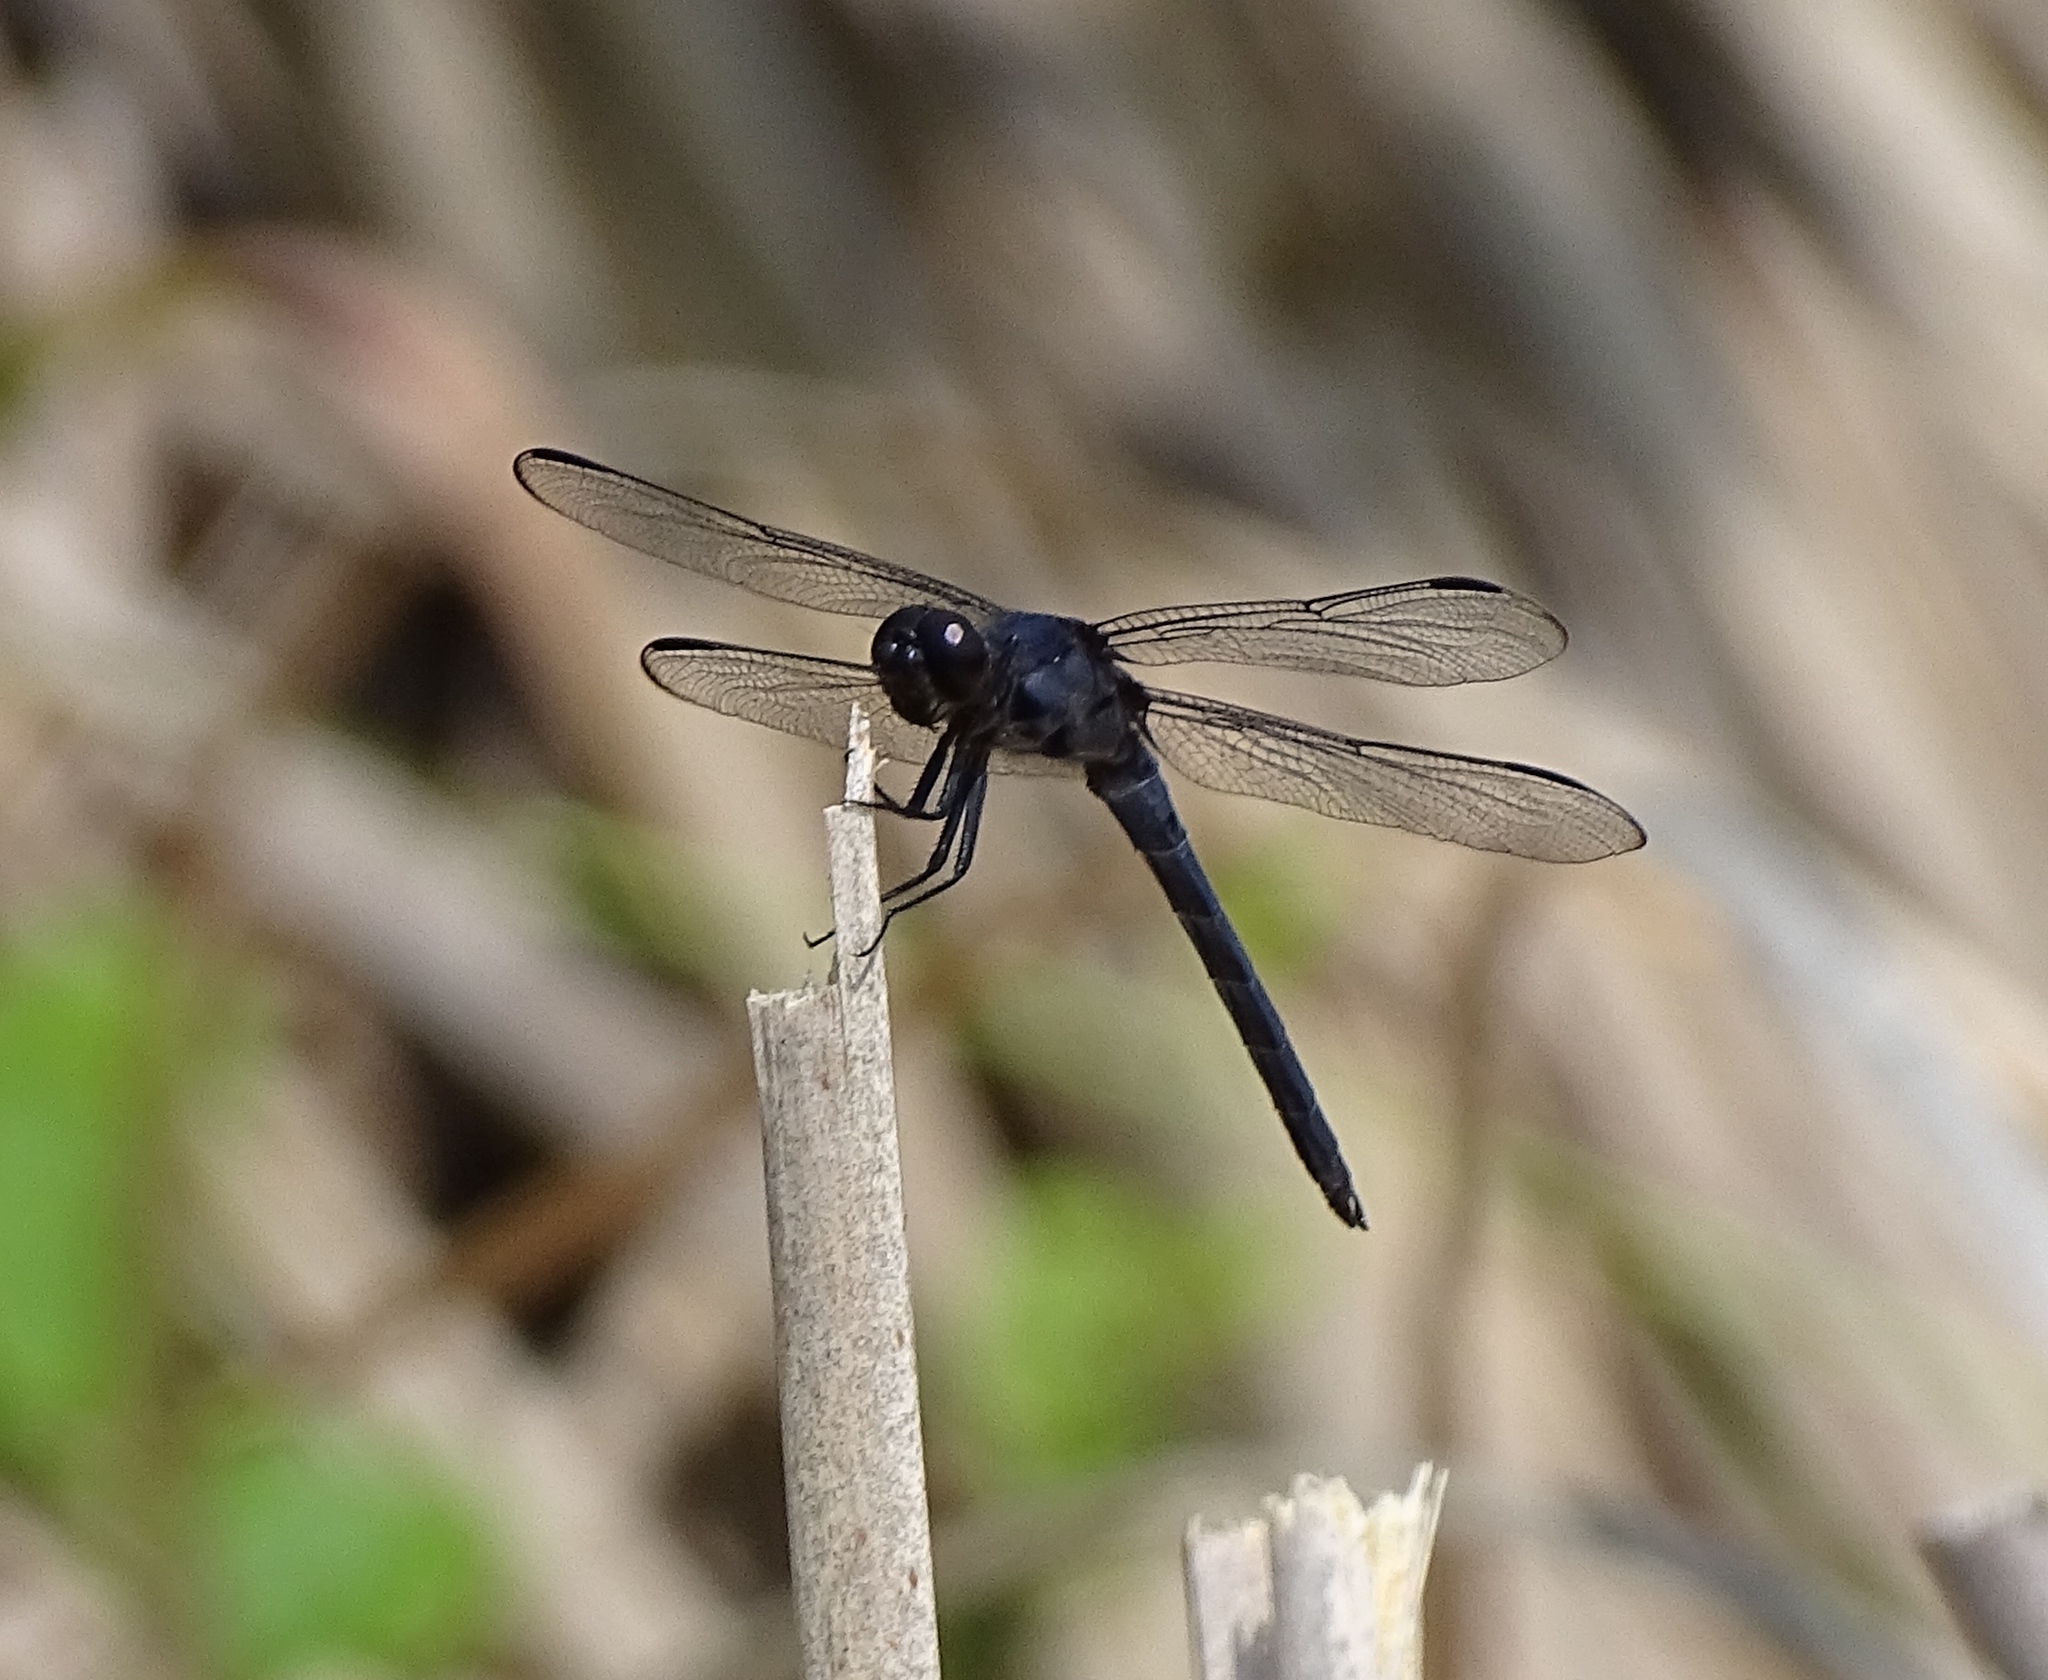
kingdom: Animalia
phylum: Arthropoda
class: Insecta
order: Odonata
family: Libellulidae
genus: Libellula
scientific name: Libellula incesta
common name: Slaty skimmer
